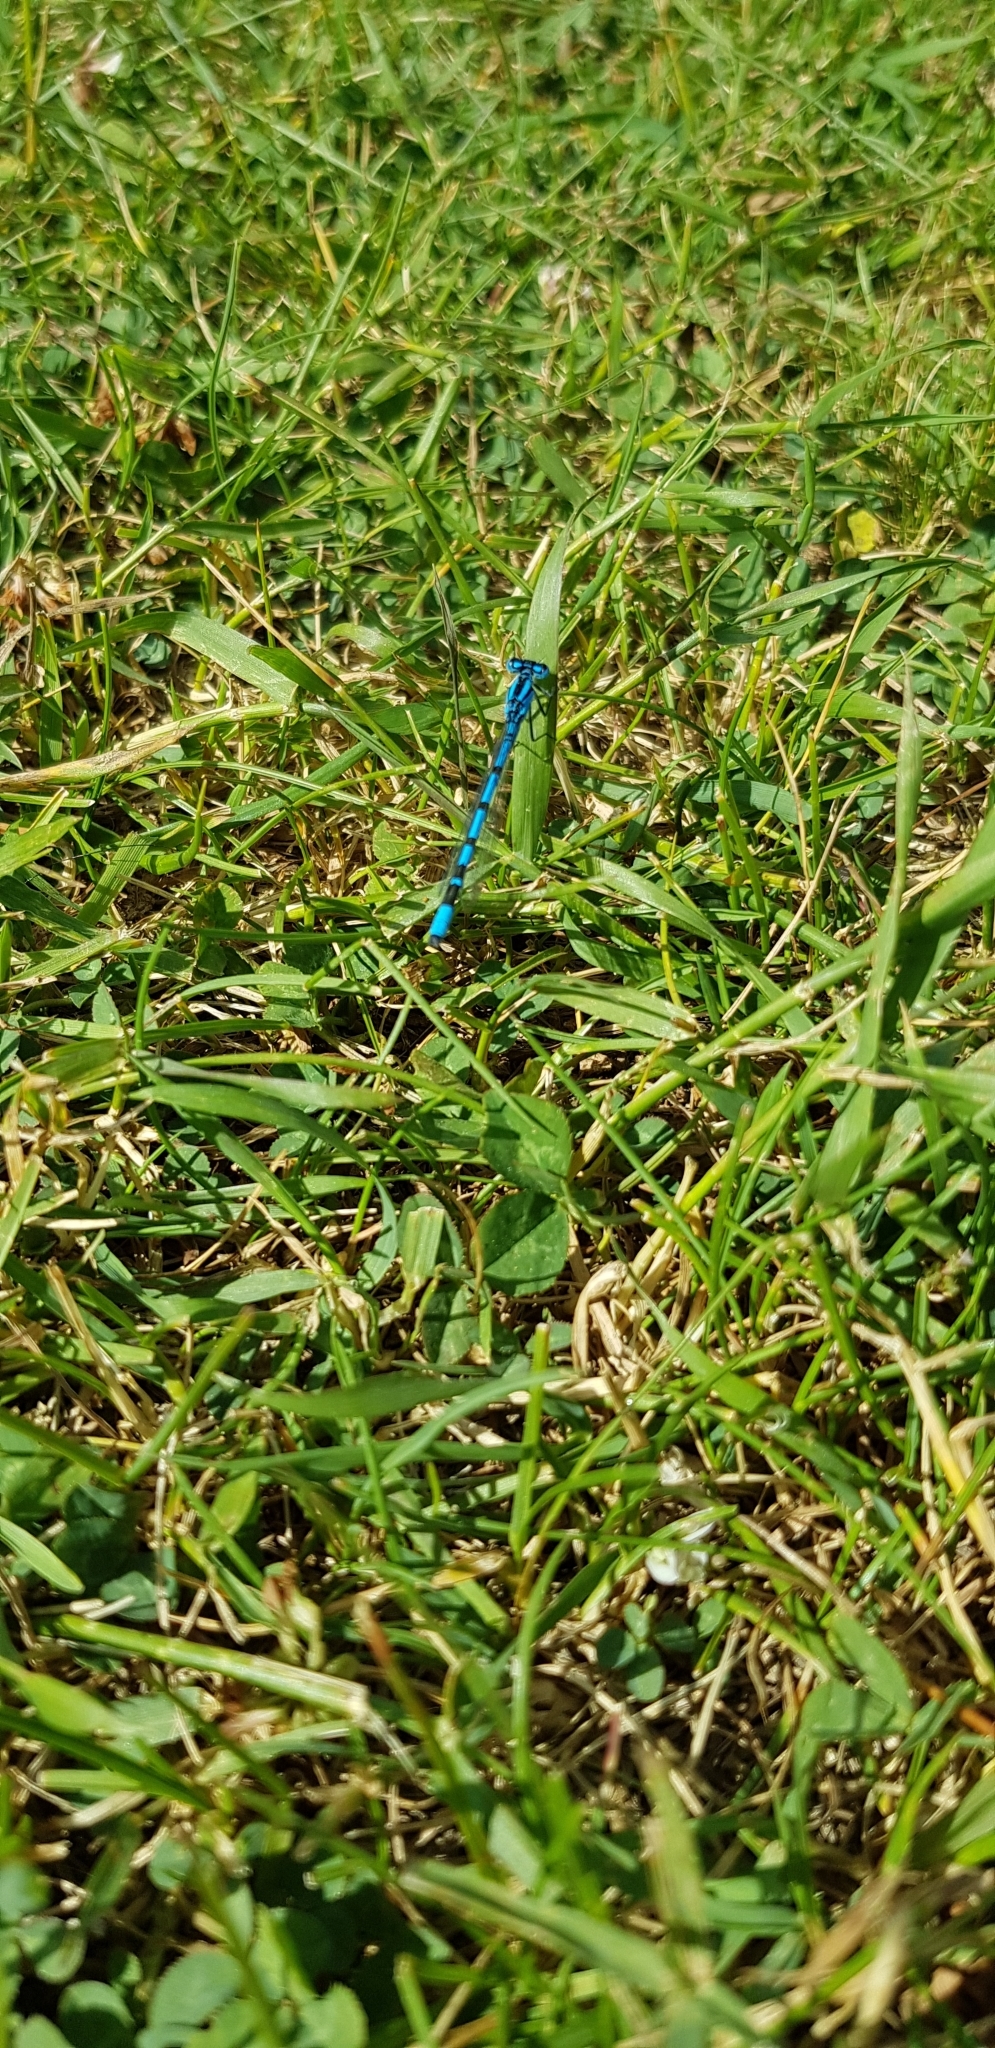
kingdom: Animalia
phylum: Arthropoda
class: Insecta
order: Odonata
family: Coenagrionidae
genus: Enallagma
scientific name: Enallagma cyathigerum
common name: Common blue damselfly
